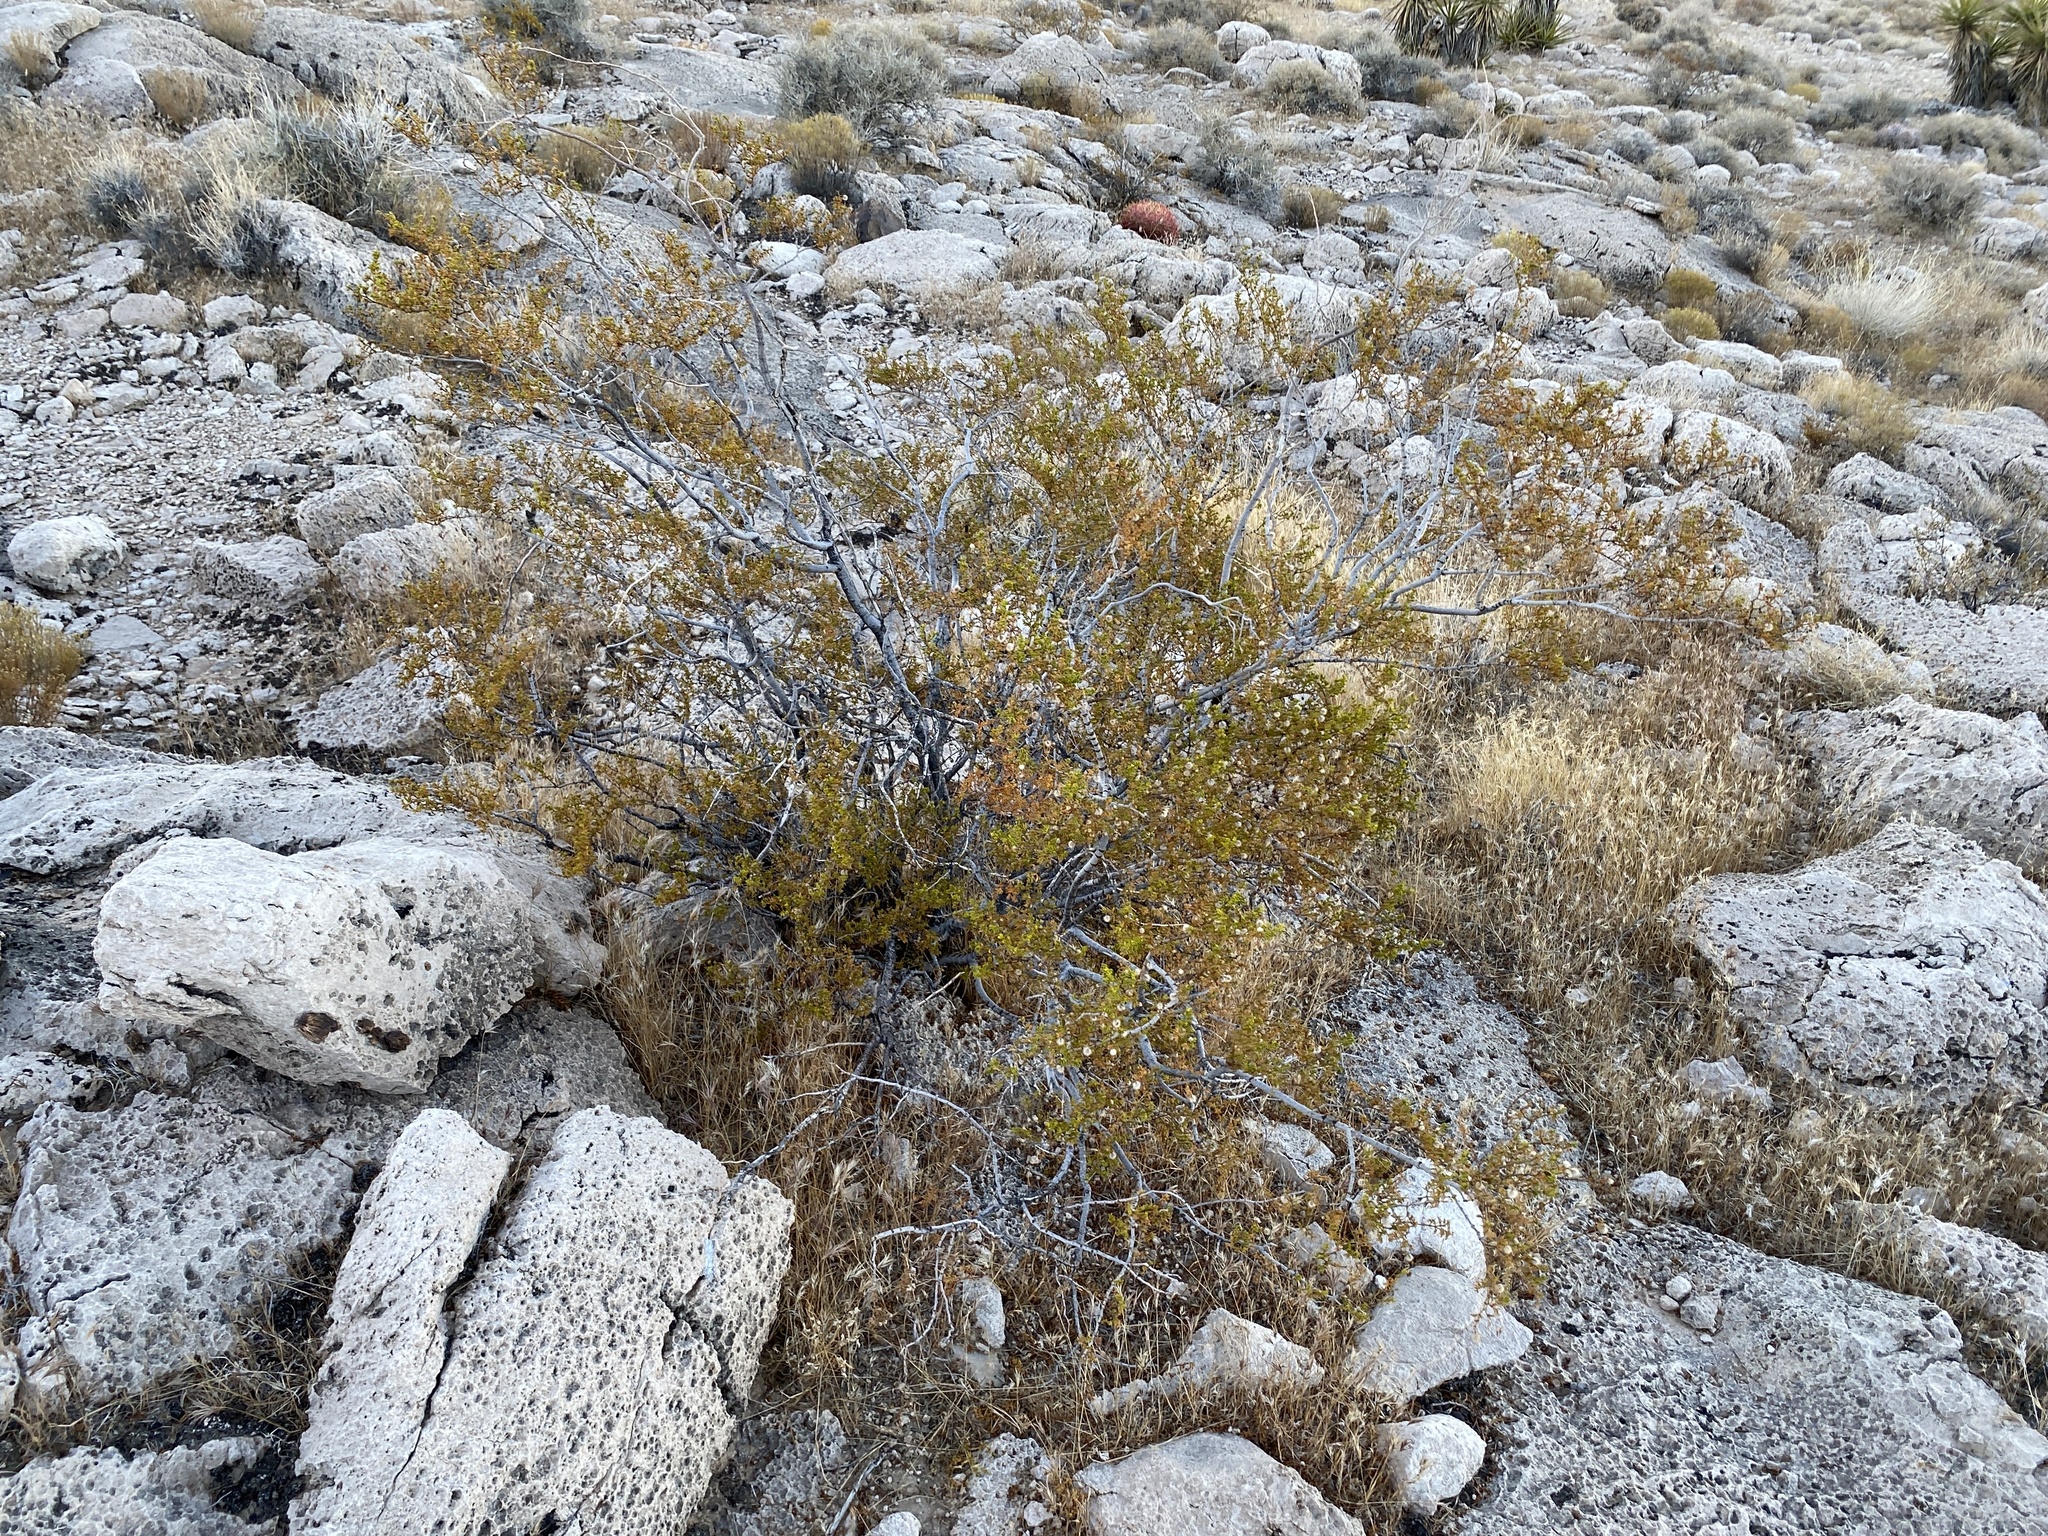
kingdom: Plantae
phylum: Tracheophyta
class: Magnoliopsida
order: Zygophyllales
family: Zygophyllaceae
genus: Larrea
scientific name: Larrea tridentata
